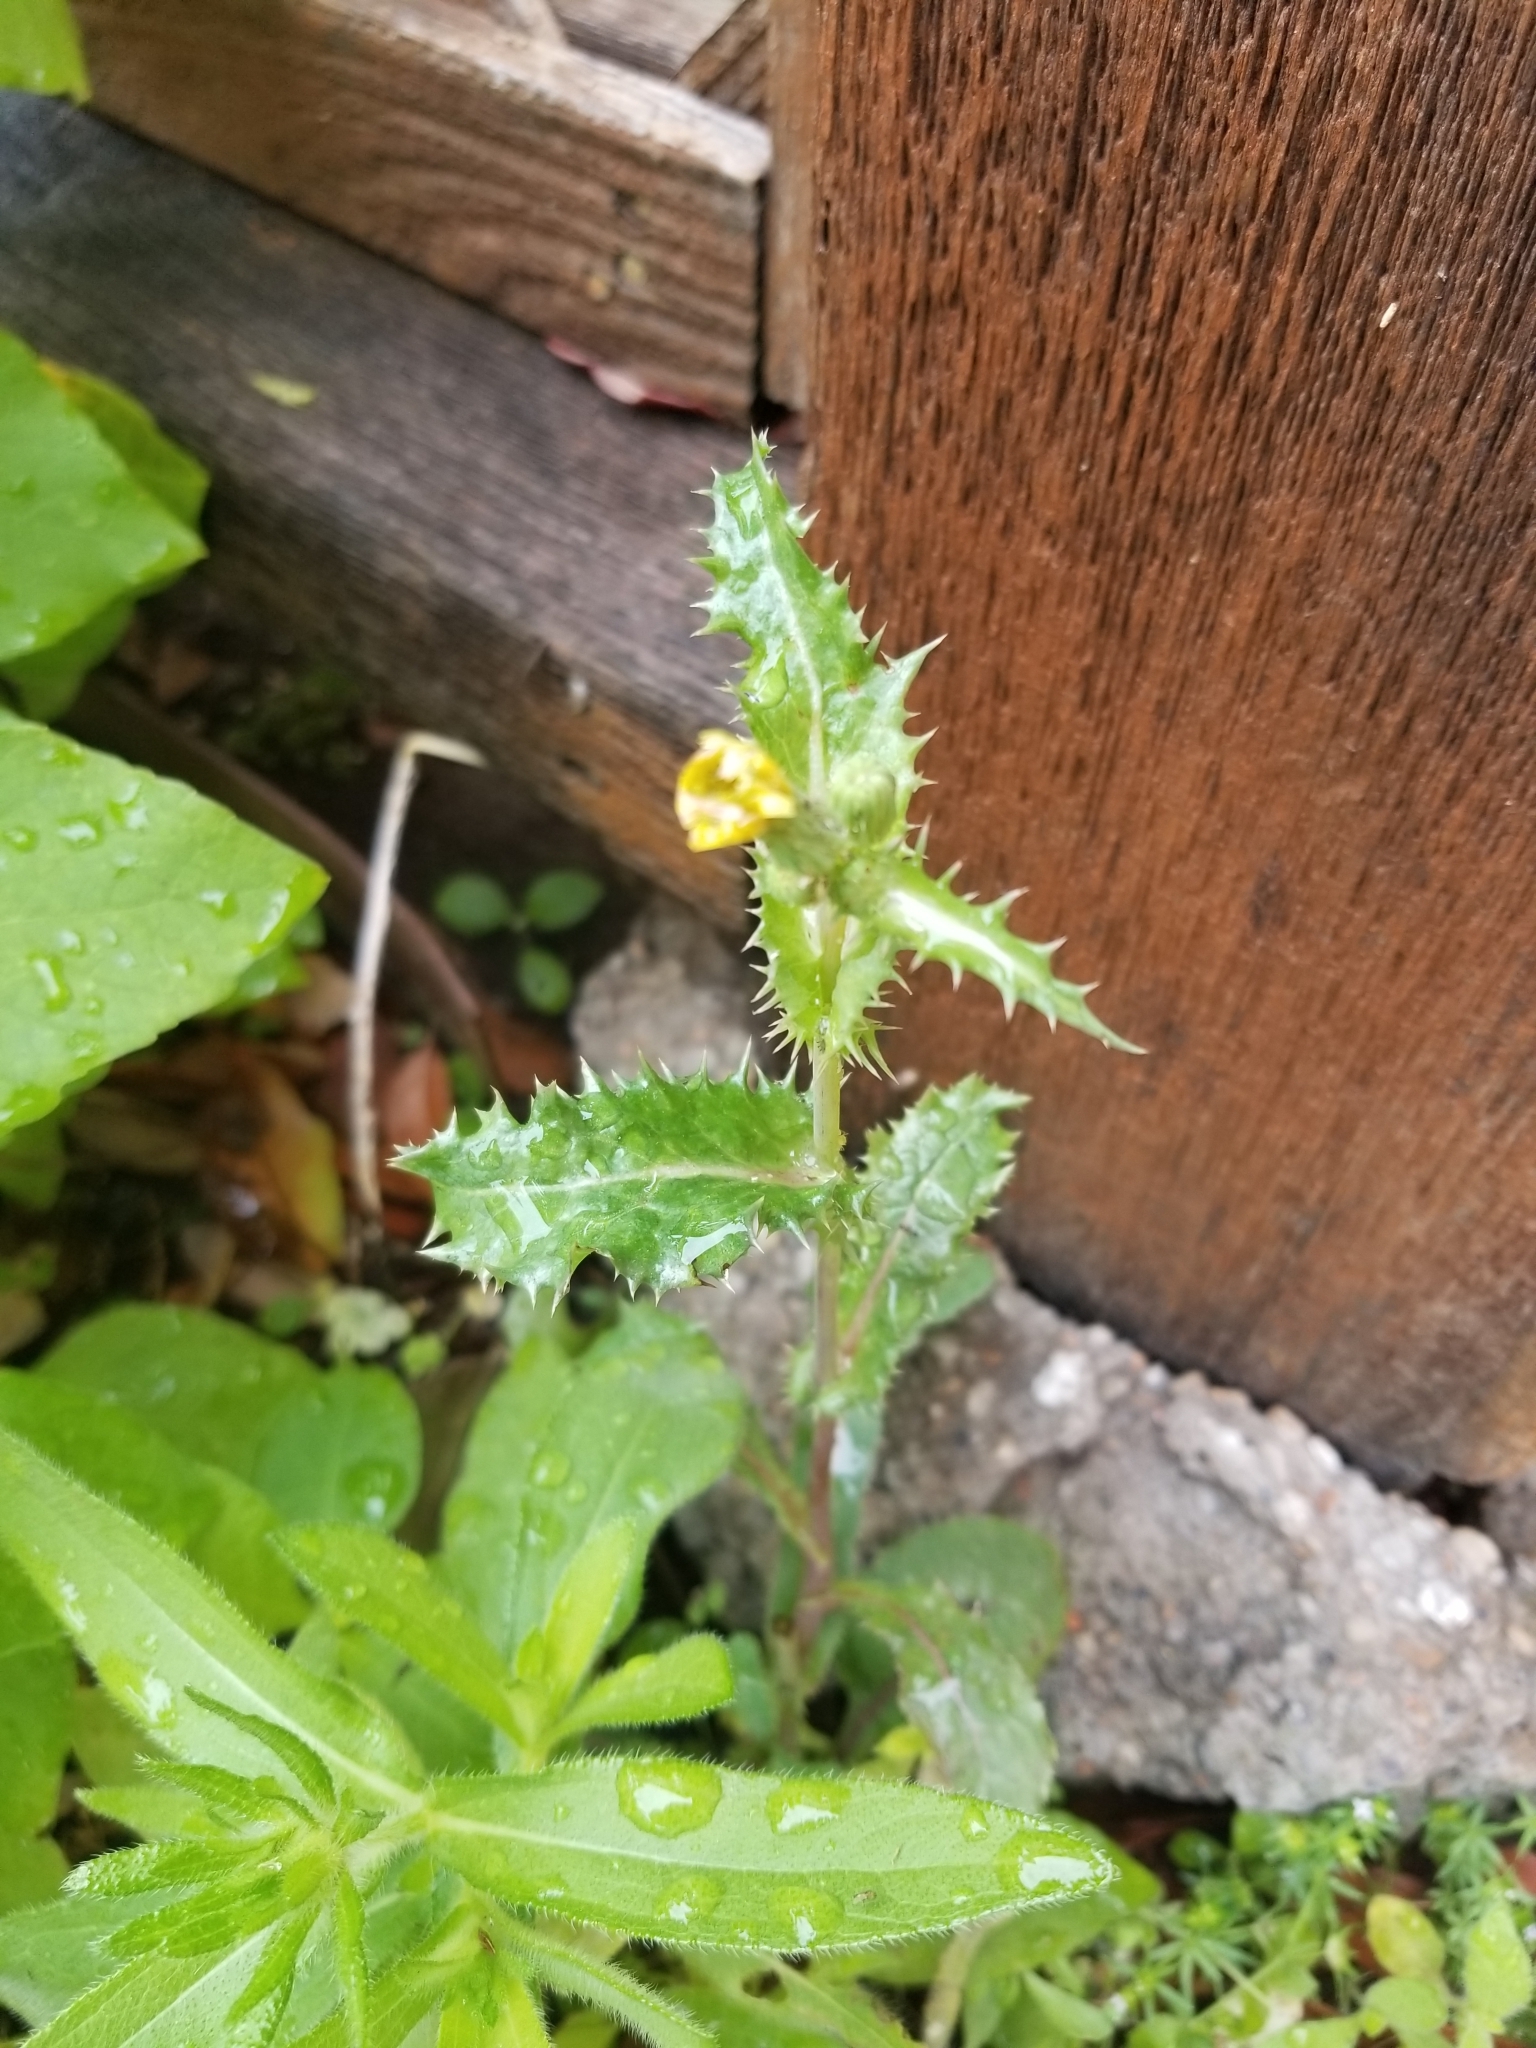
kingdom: Plantae
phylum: Tracheophyta
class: Magnoliopsida
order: Asterales
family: Asteraceae
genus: Sonchus
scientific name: Sonchus asper
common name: Prickly sow-thistle
